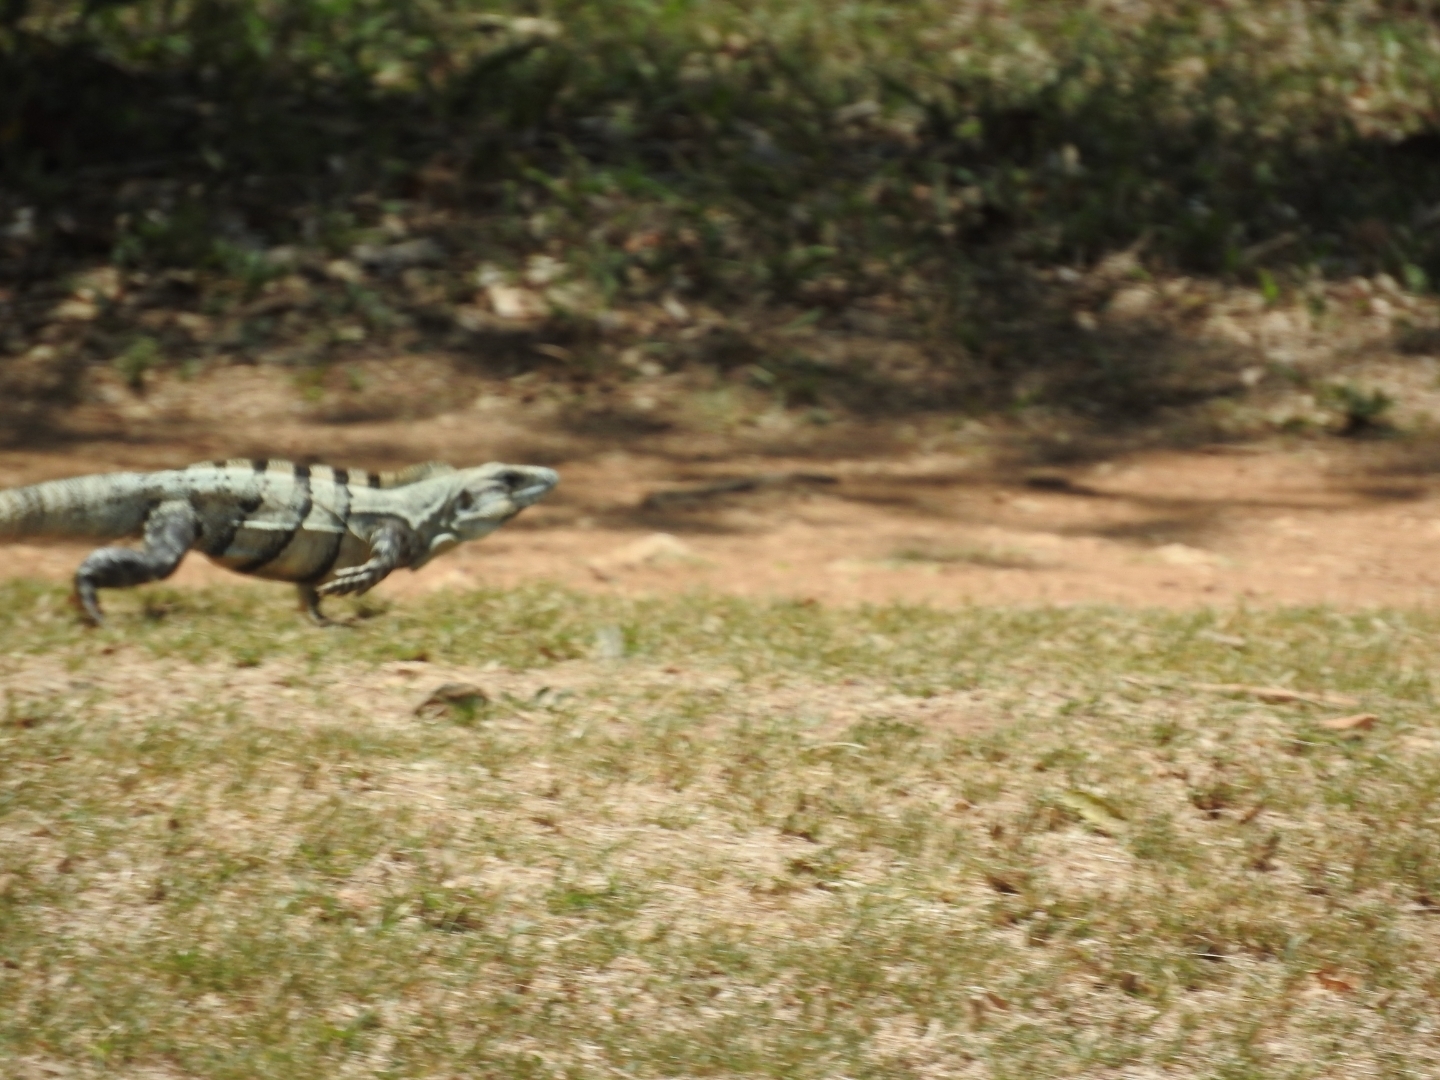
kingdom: Animalia
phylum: Chordata
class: Squamata
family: Iguanidae
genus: Ctenosaura
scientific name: Ctenosaura similis
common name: Black spiny-tailed iguana
